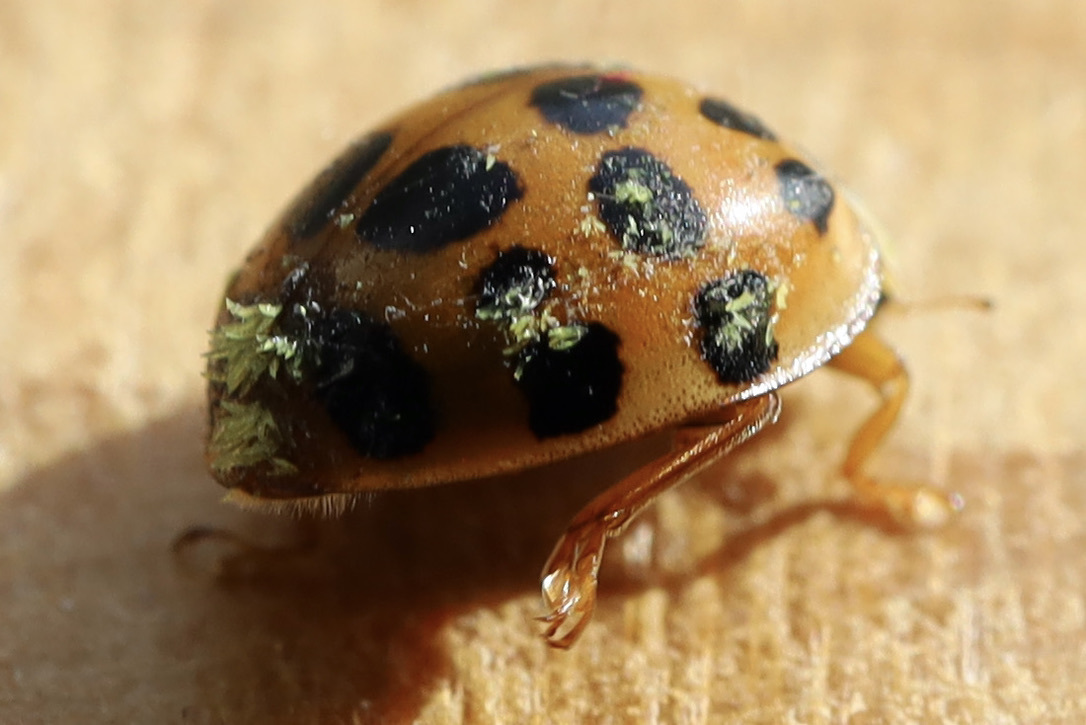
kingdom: Fungi
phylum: Ascomycota
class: Laboulbeniomycetes
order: Laboulbeniales
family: Laboulbeniaceae
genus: Hesperomyces
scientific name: Hesperomyces harmoniae
